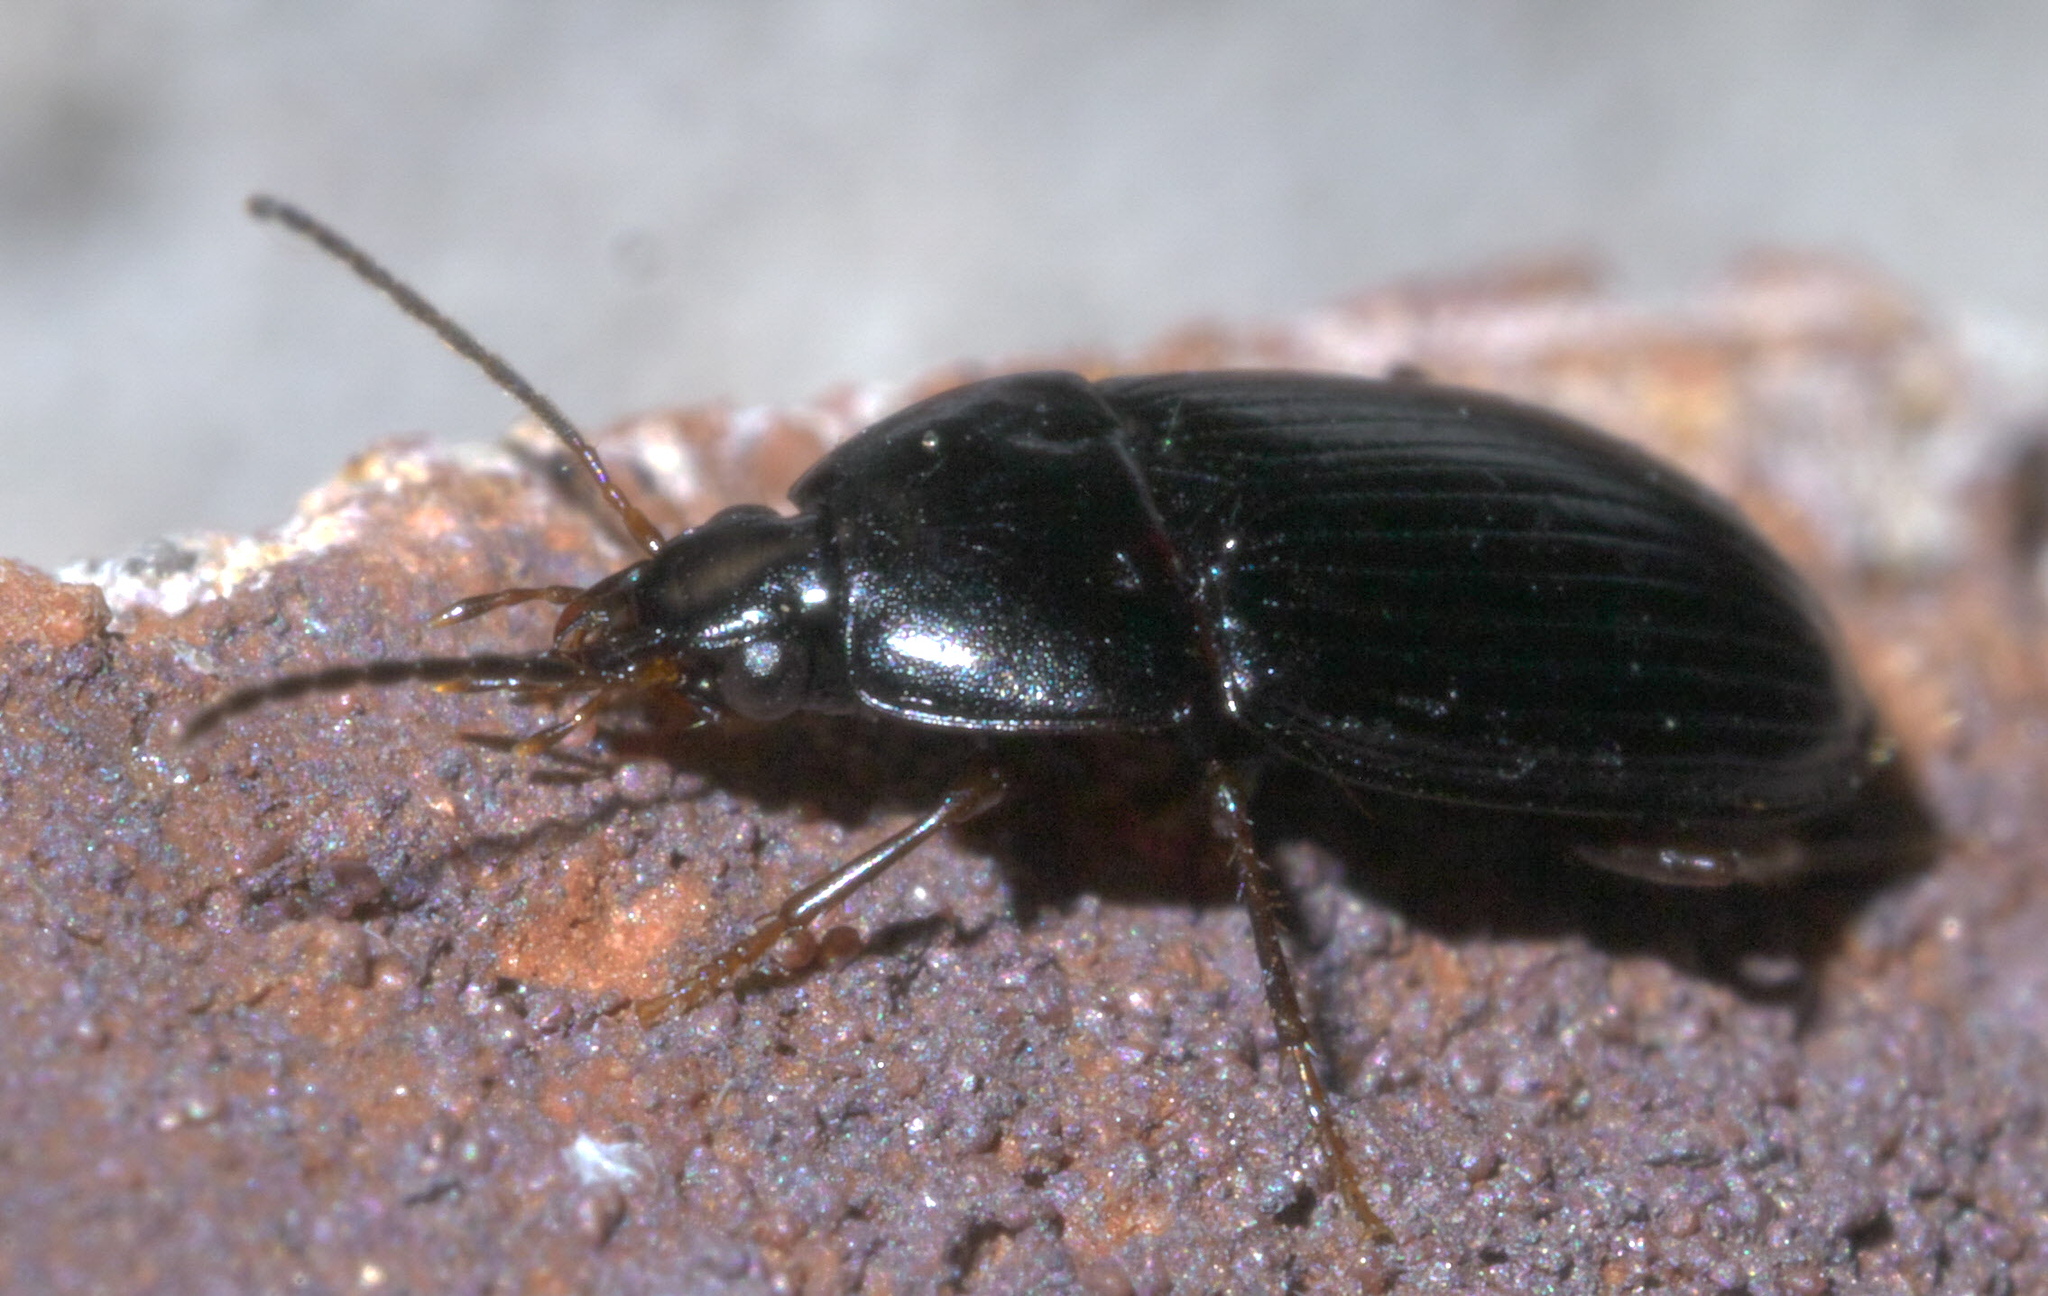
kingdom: Animalia
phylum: Arthropoda
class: Insecta
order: Coleoptera
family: Carabidae
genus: Anatrichis
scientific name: Anatrichis minuta
